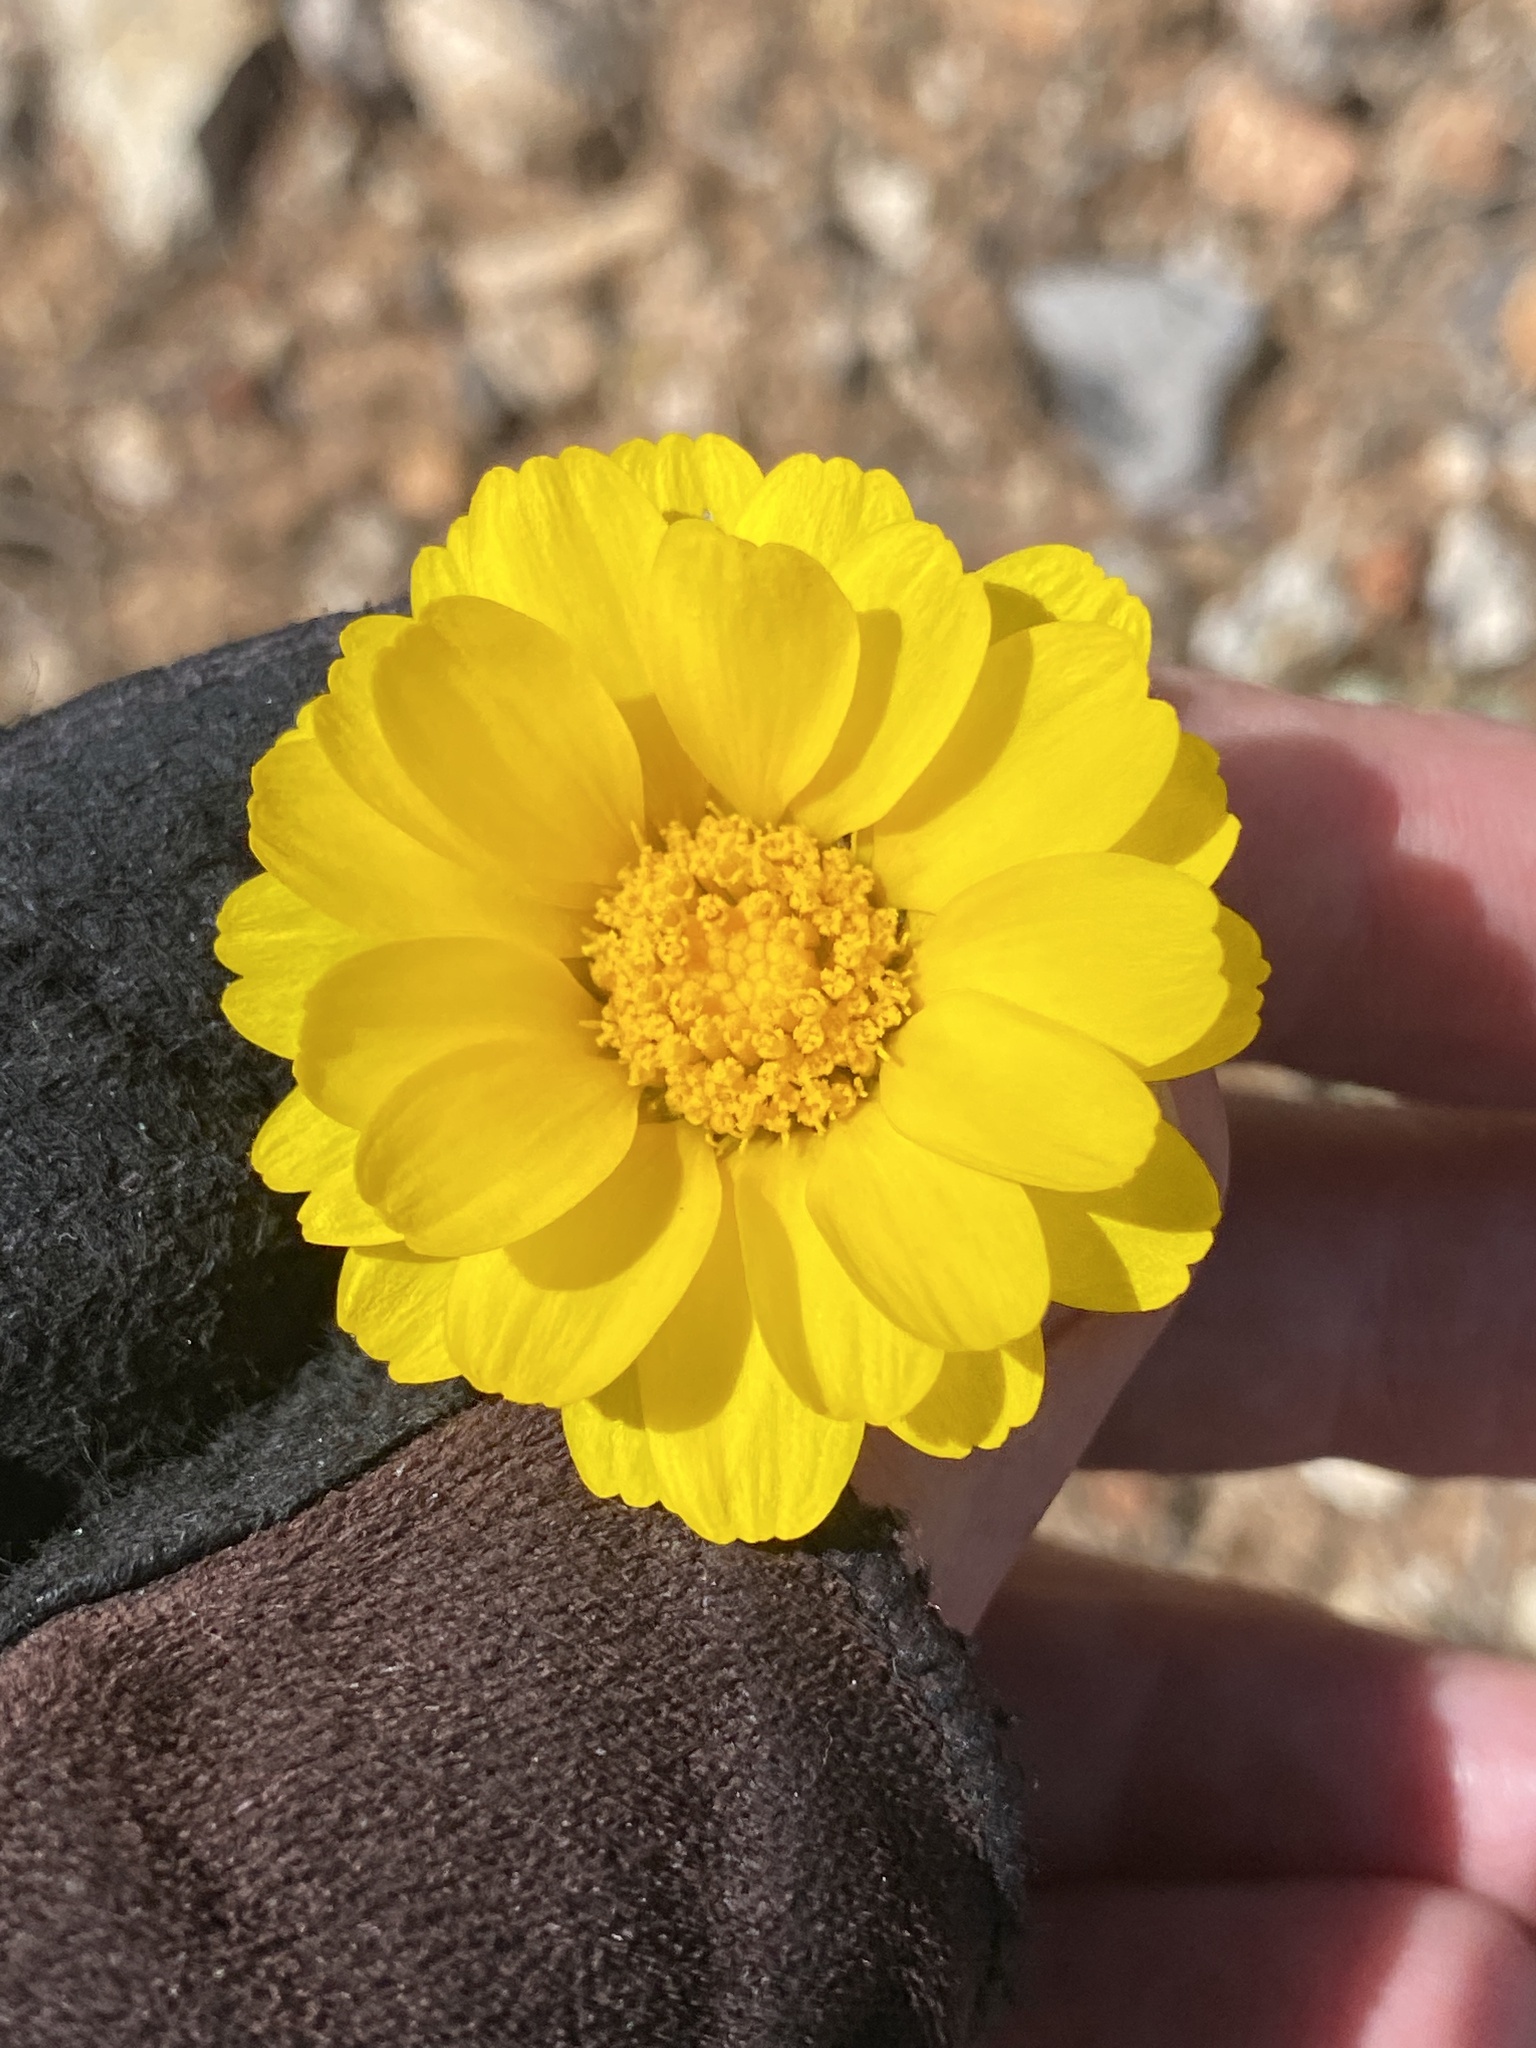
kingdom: Plantae
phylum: Tracheophyta
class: Magnoliopsida
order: Asterales
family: Asteraceae
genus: Baileya
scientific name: Baileya multiradiata
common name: Desert-marigold
